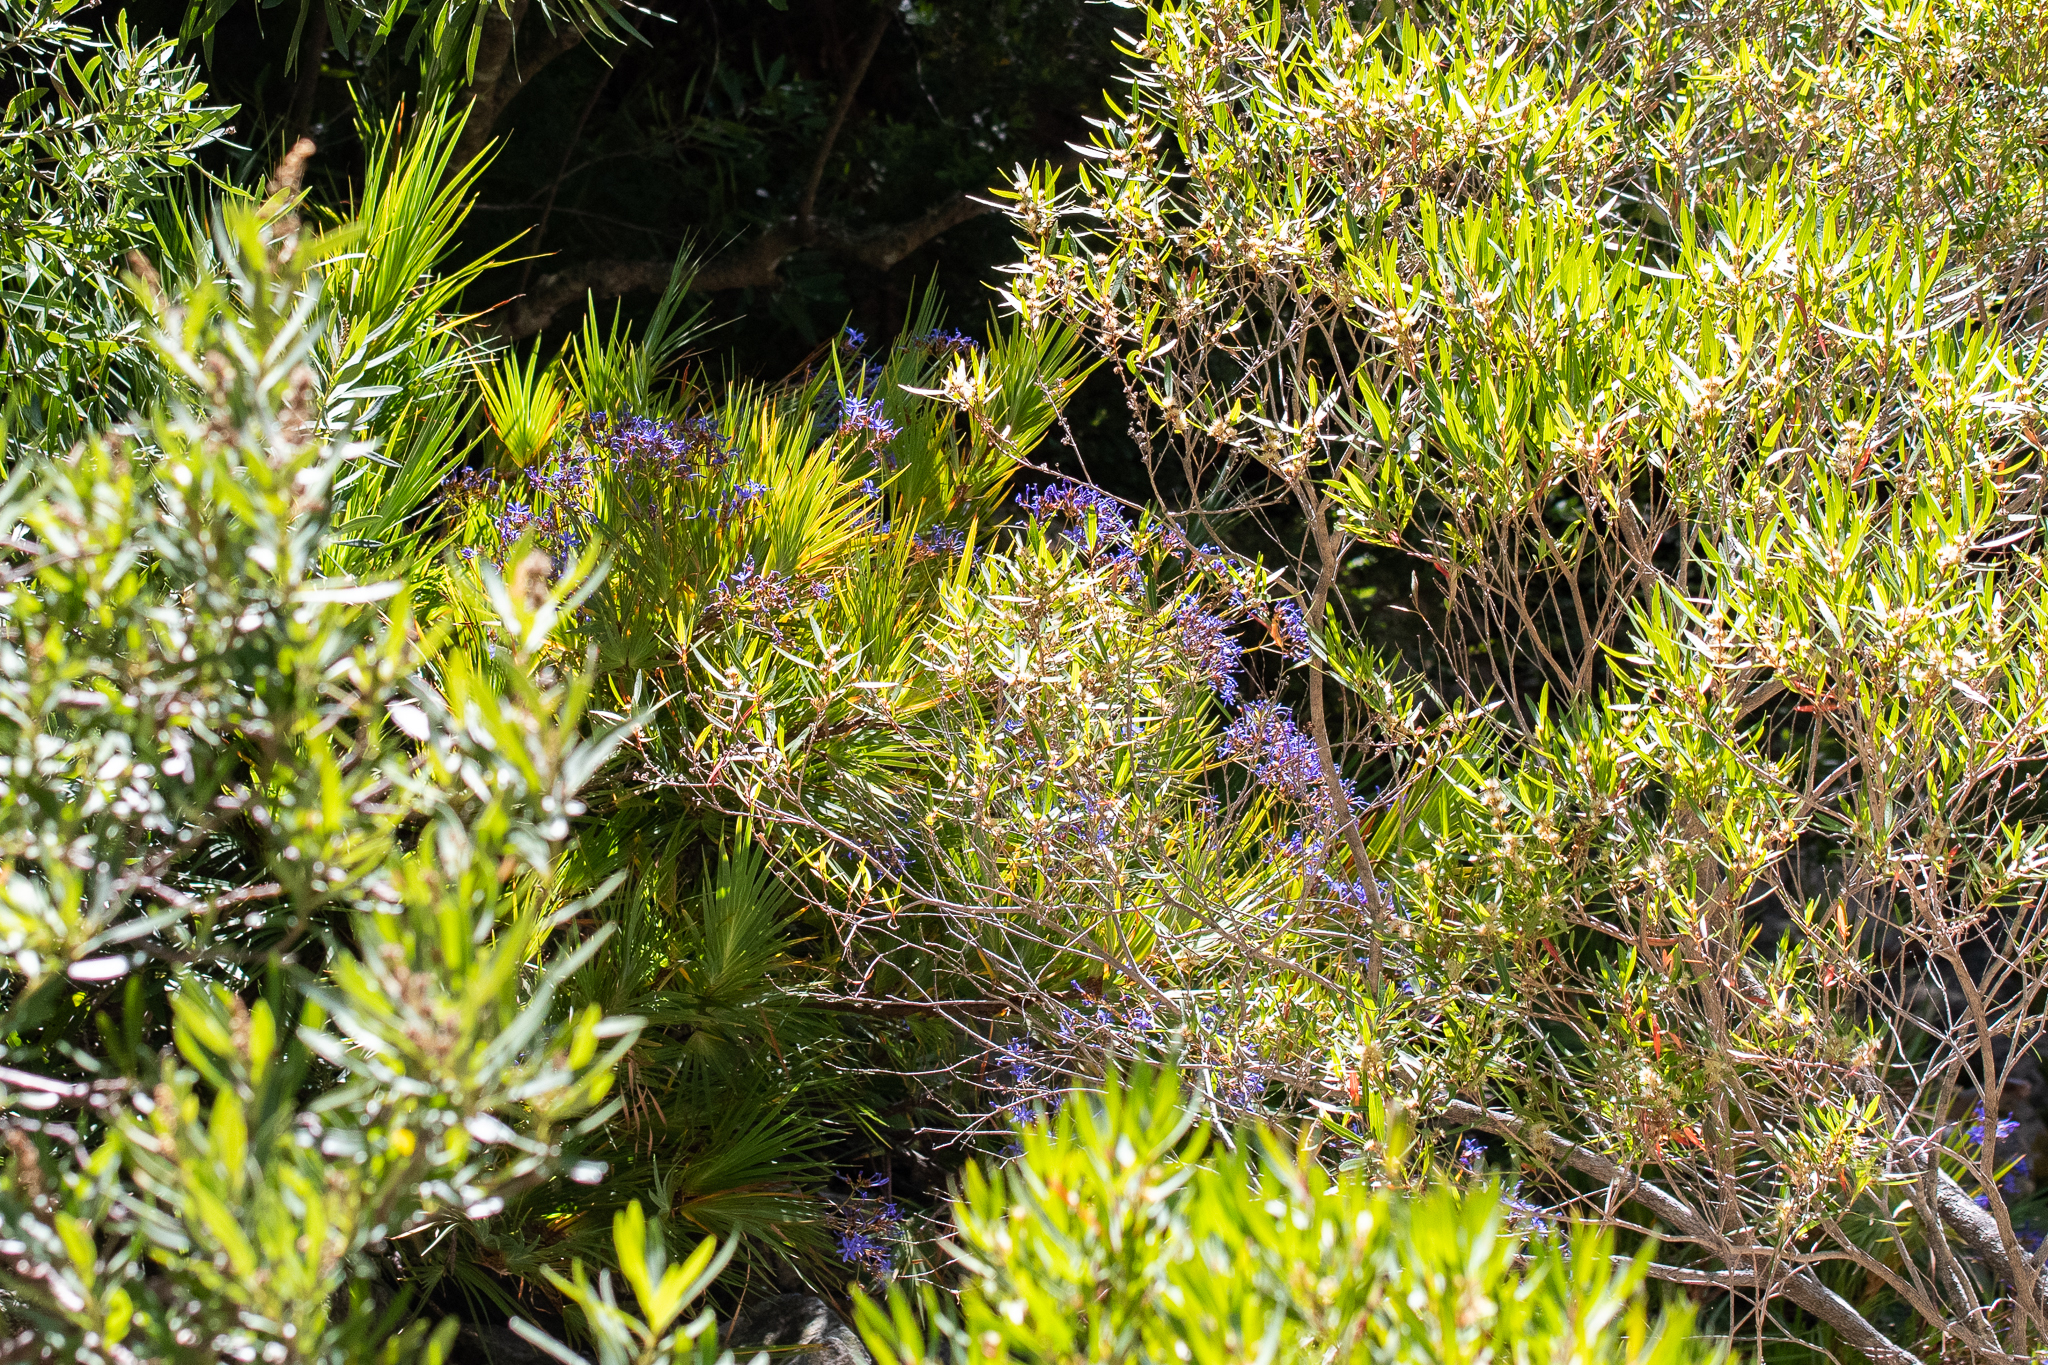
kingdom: Plantae
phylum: Tracheophyta
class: Liliopsida
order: Asparagales
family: Iridaceae
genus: Nivenia
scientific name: Nivenia corymbosa
